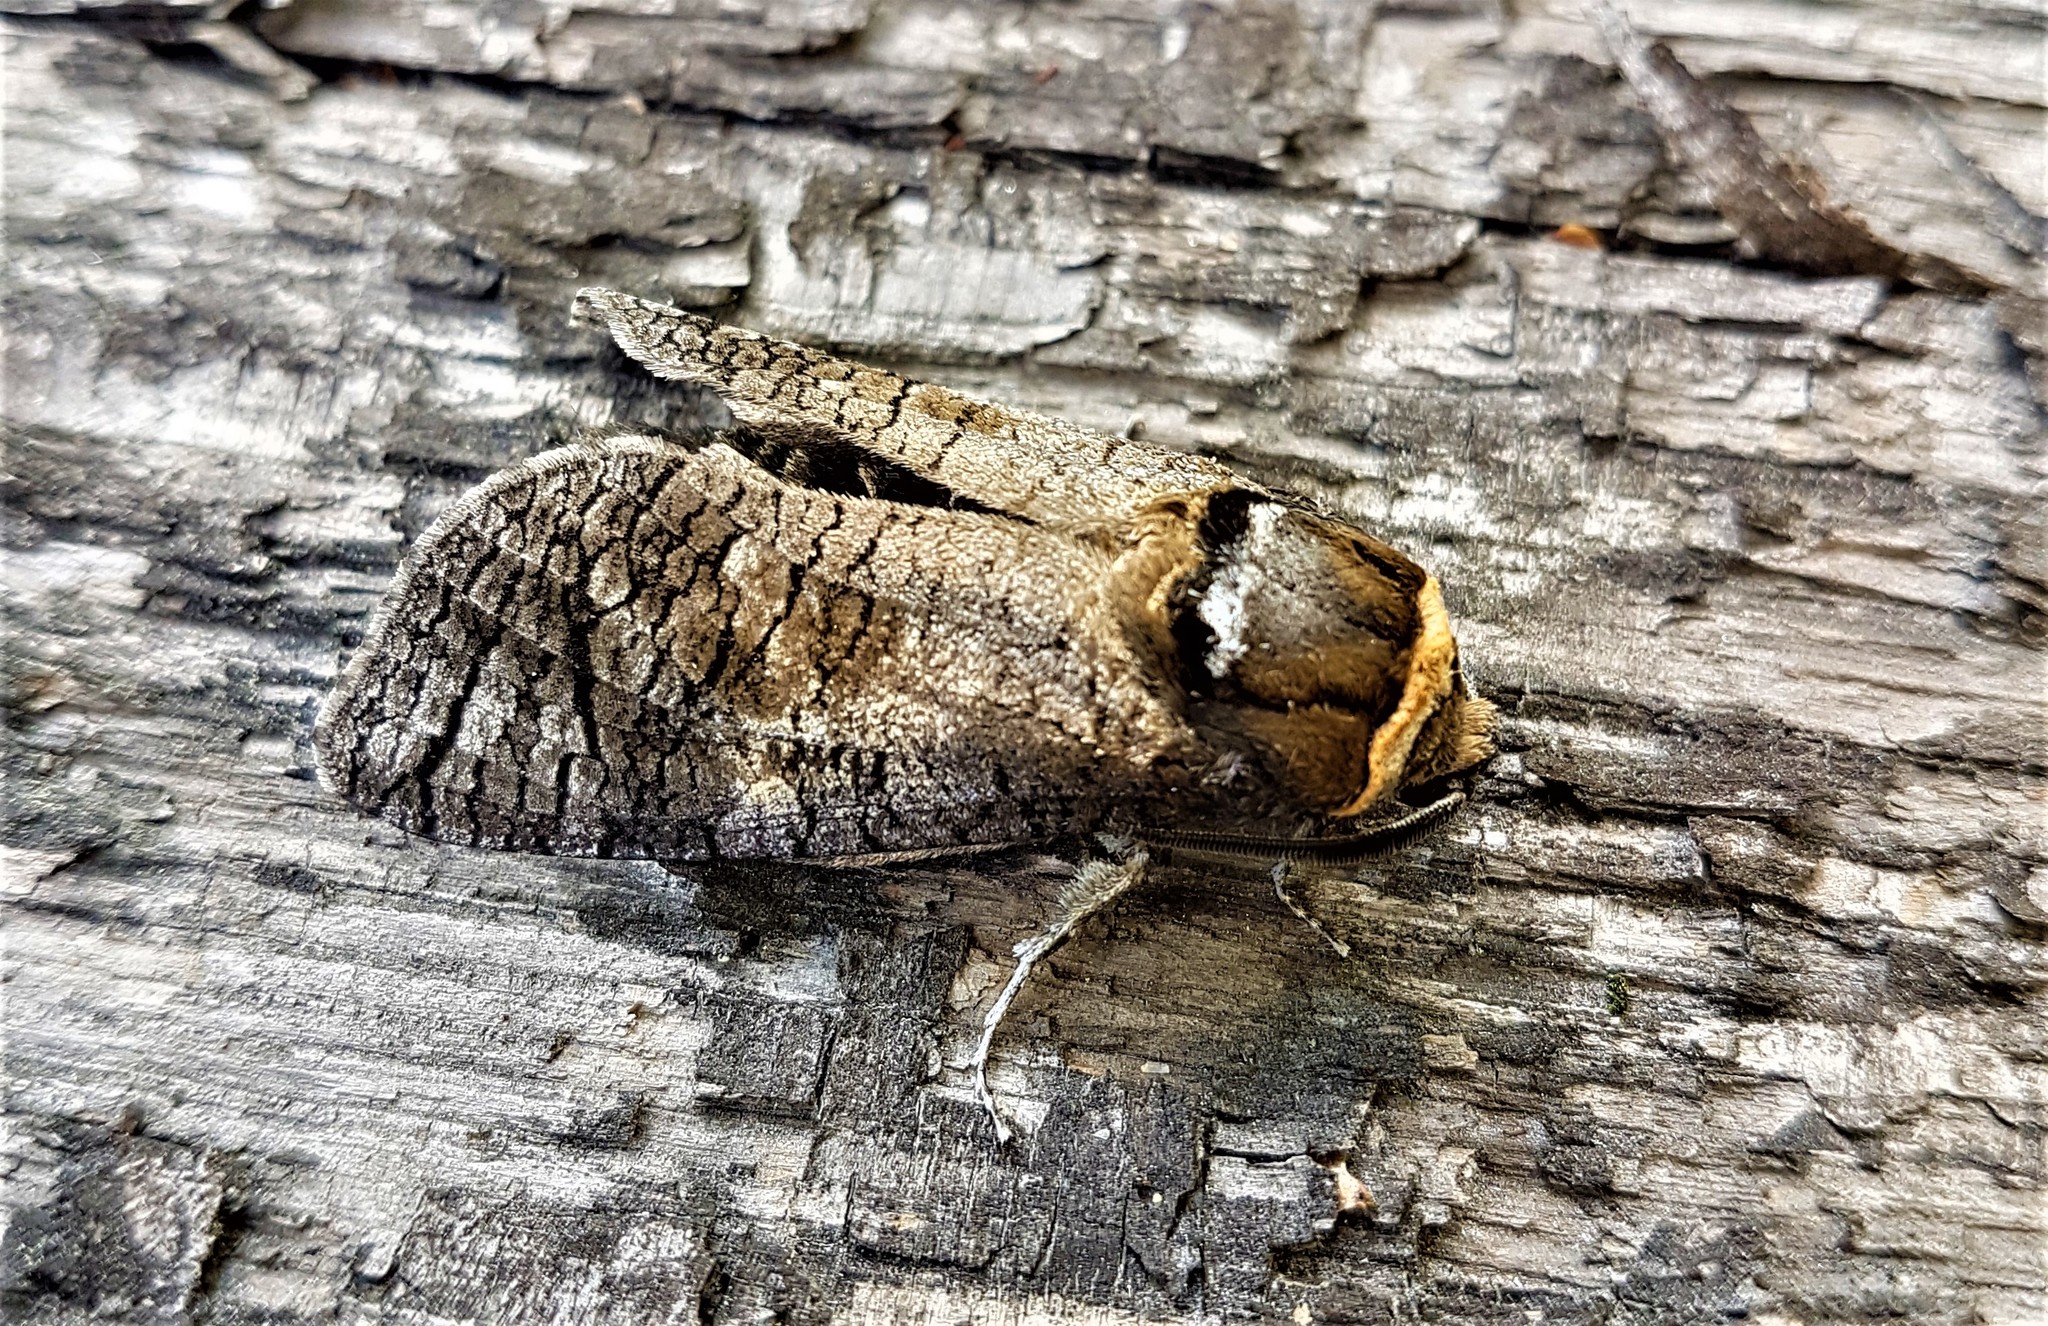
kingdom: Animalia
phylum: Arthropoda
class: Insecta
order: Lepidoptera
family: Cossidae
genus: Cossus
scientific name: Cossus cossus
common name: Goat moth
